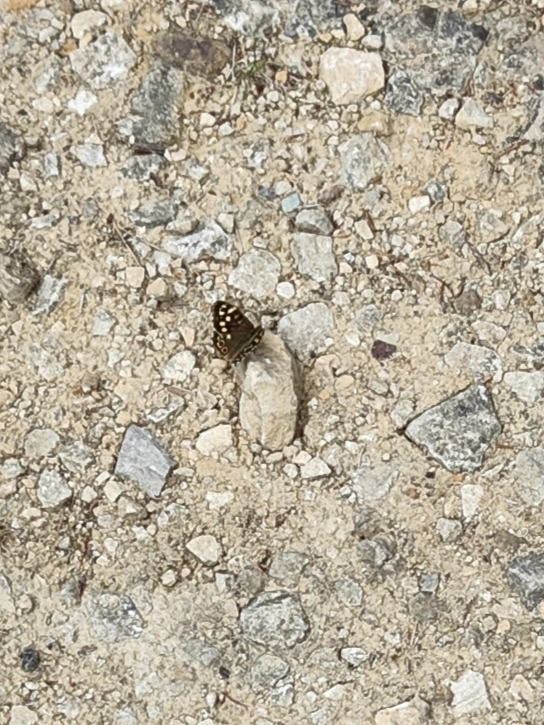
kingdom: Animalia
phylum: Arthropoda
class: Insecta
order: Lepidoptera
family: Nymphalidae
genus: Pararge
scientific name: Pararge aegeria
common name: Speckled wood
